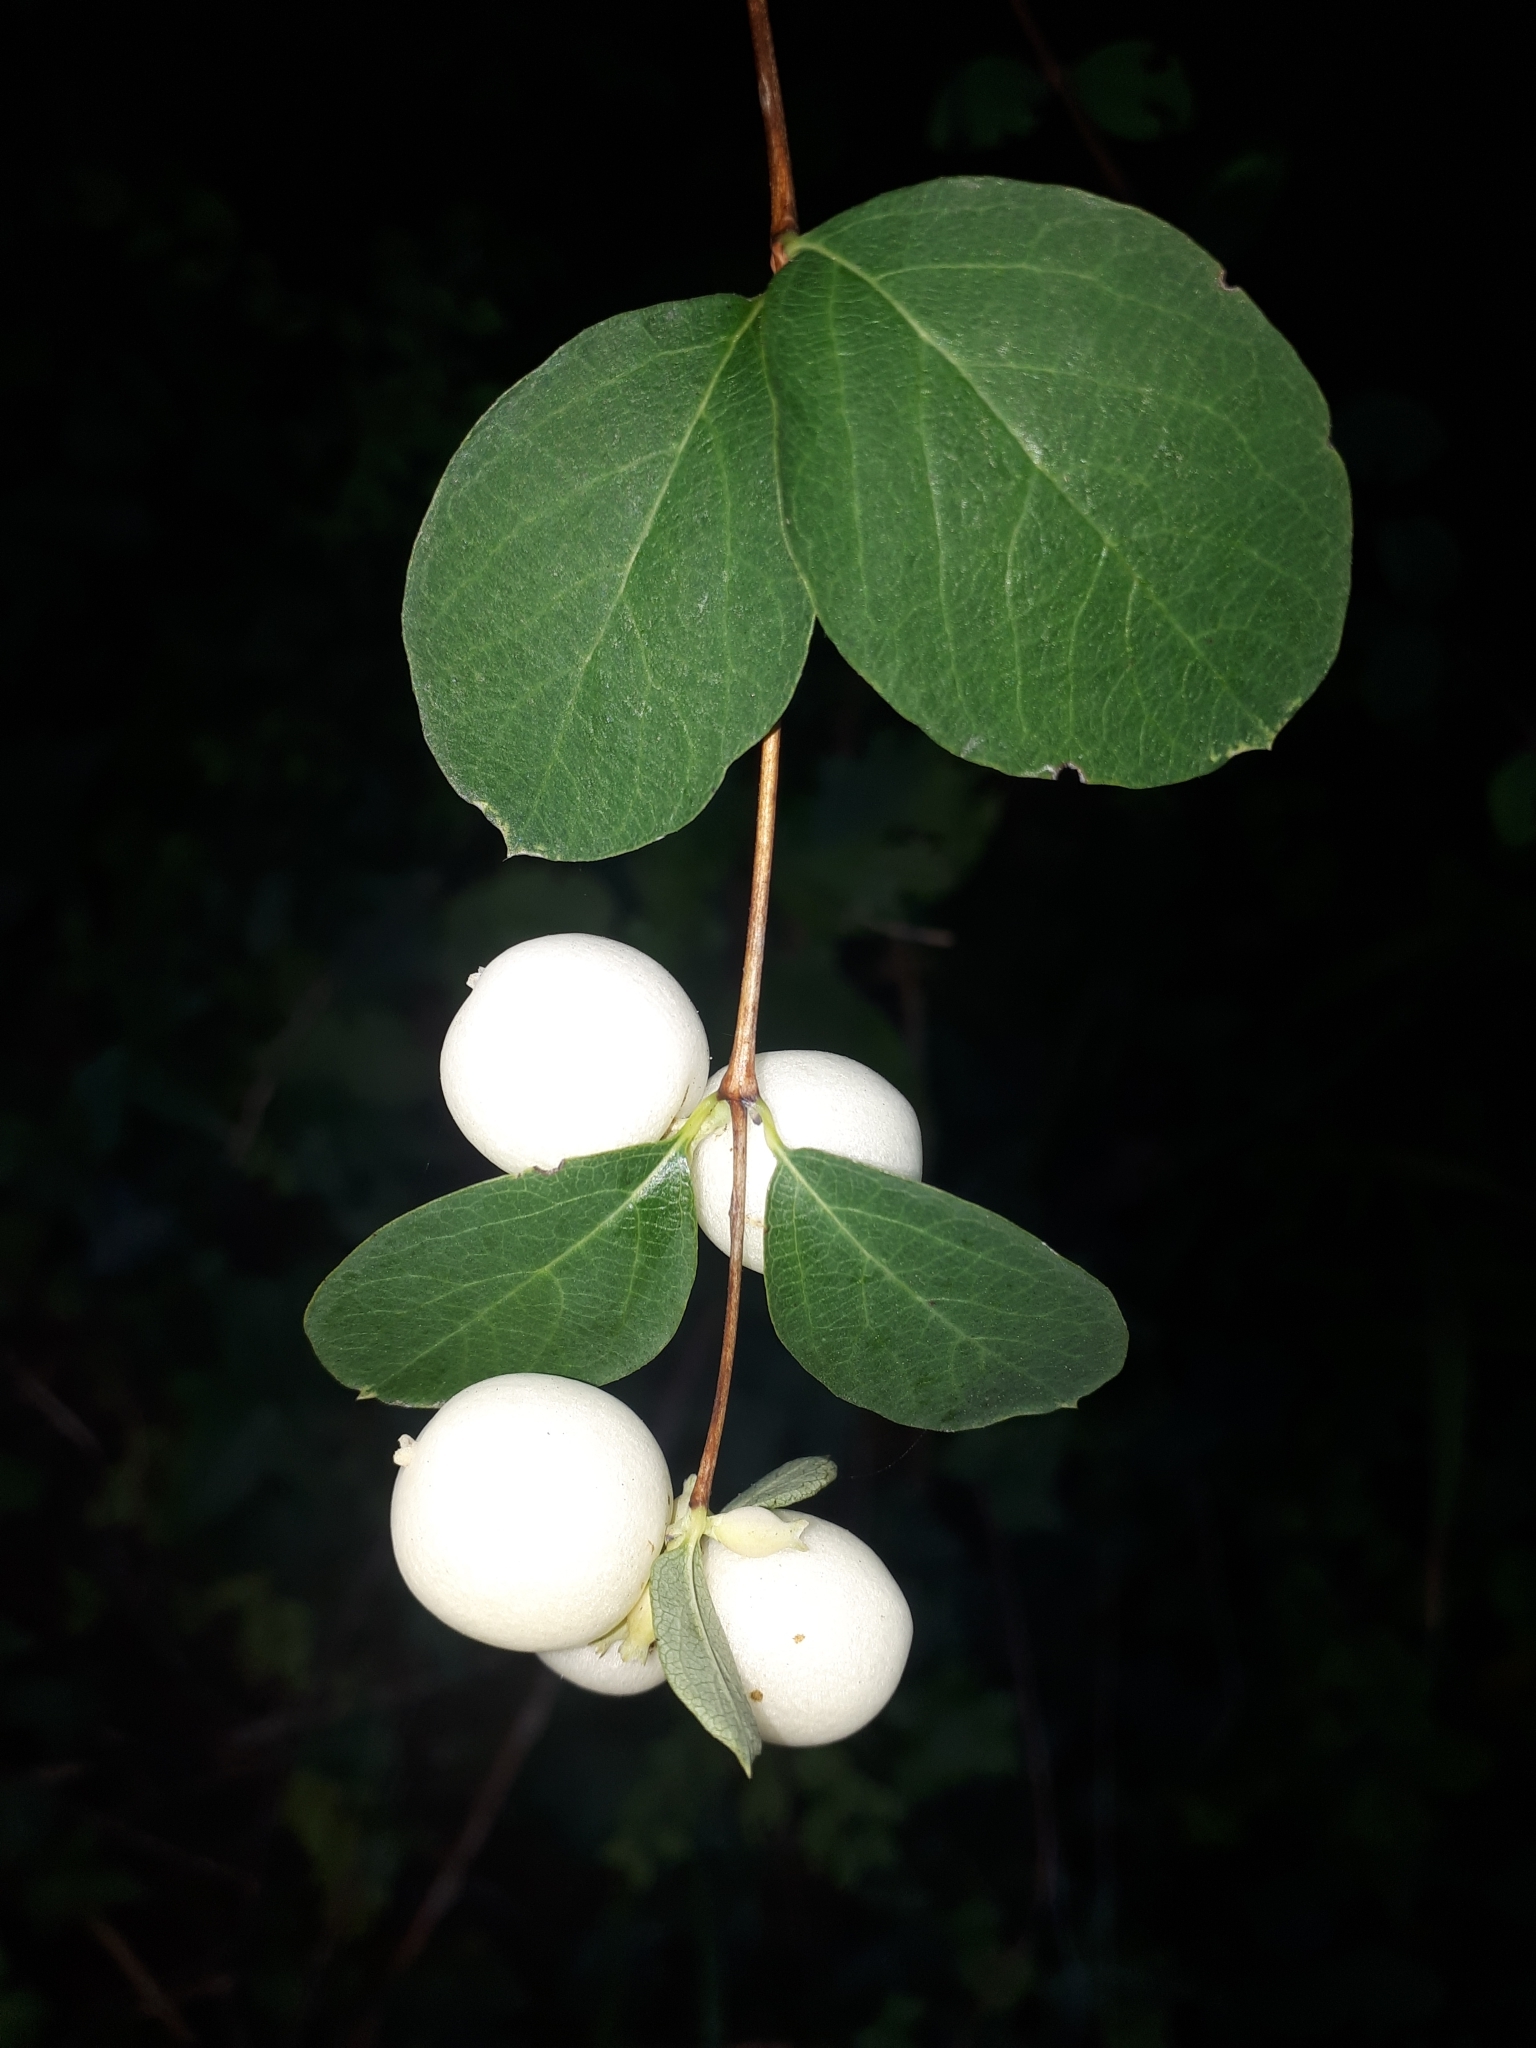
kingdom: Plantae
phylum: Tracheophyta
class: Magnoliopsida
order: Dipsacales
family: Caprifoliaceae
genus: Symphoricarpos
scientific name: Symphoricarpos albus
